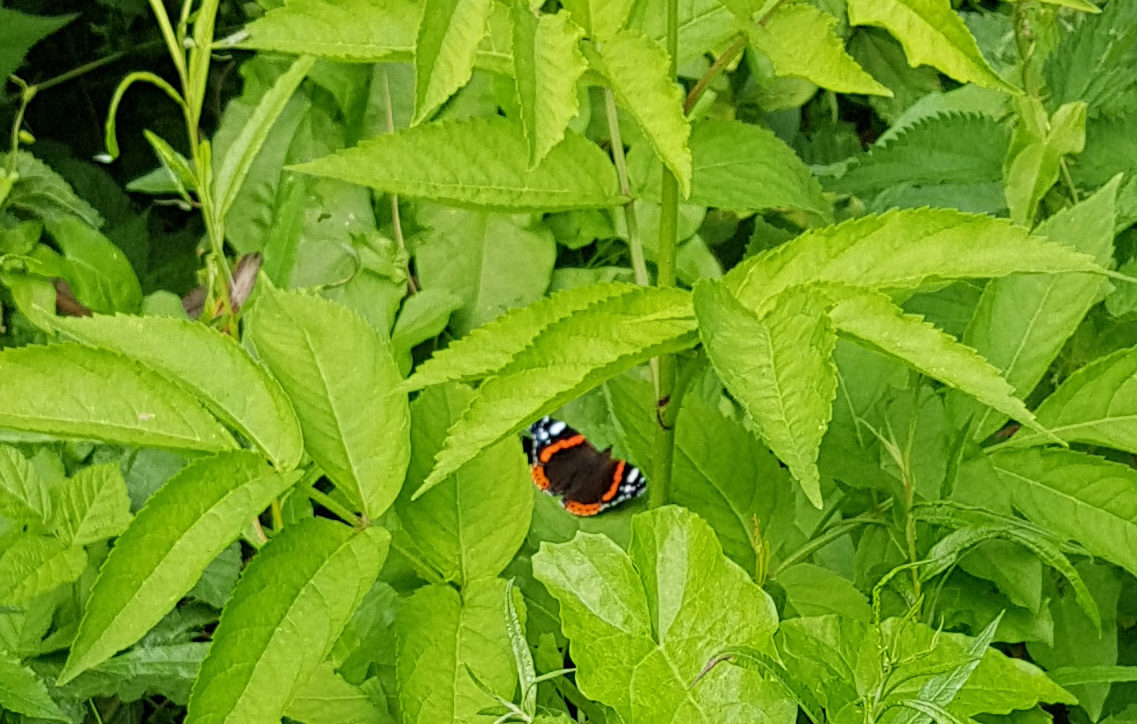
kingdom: Animalia
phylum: Arthropoda
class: Insecta
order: Lepidoptera
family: Nymphalidae
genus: Vanessa
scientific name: Vanessa atalanta
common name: Red admiral
